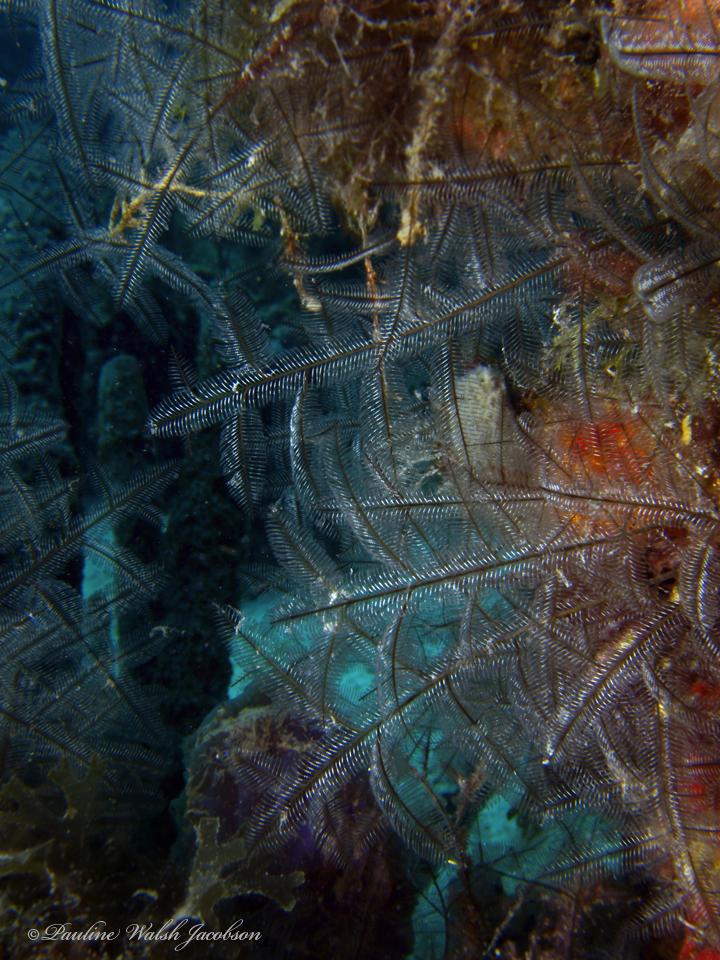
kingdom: Animalia
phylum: Cnidaria
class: Hydrozoa
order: Leptothecata
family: Aglaopheniidae
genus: Macrorhynchia
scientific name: Macrorhynchia philippina
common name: Stinging hydroid
